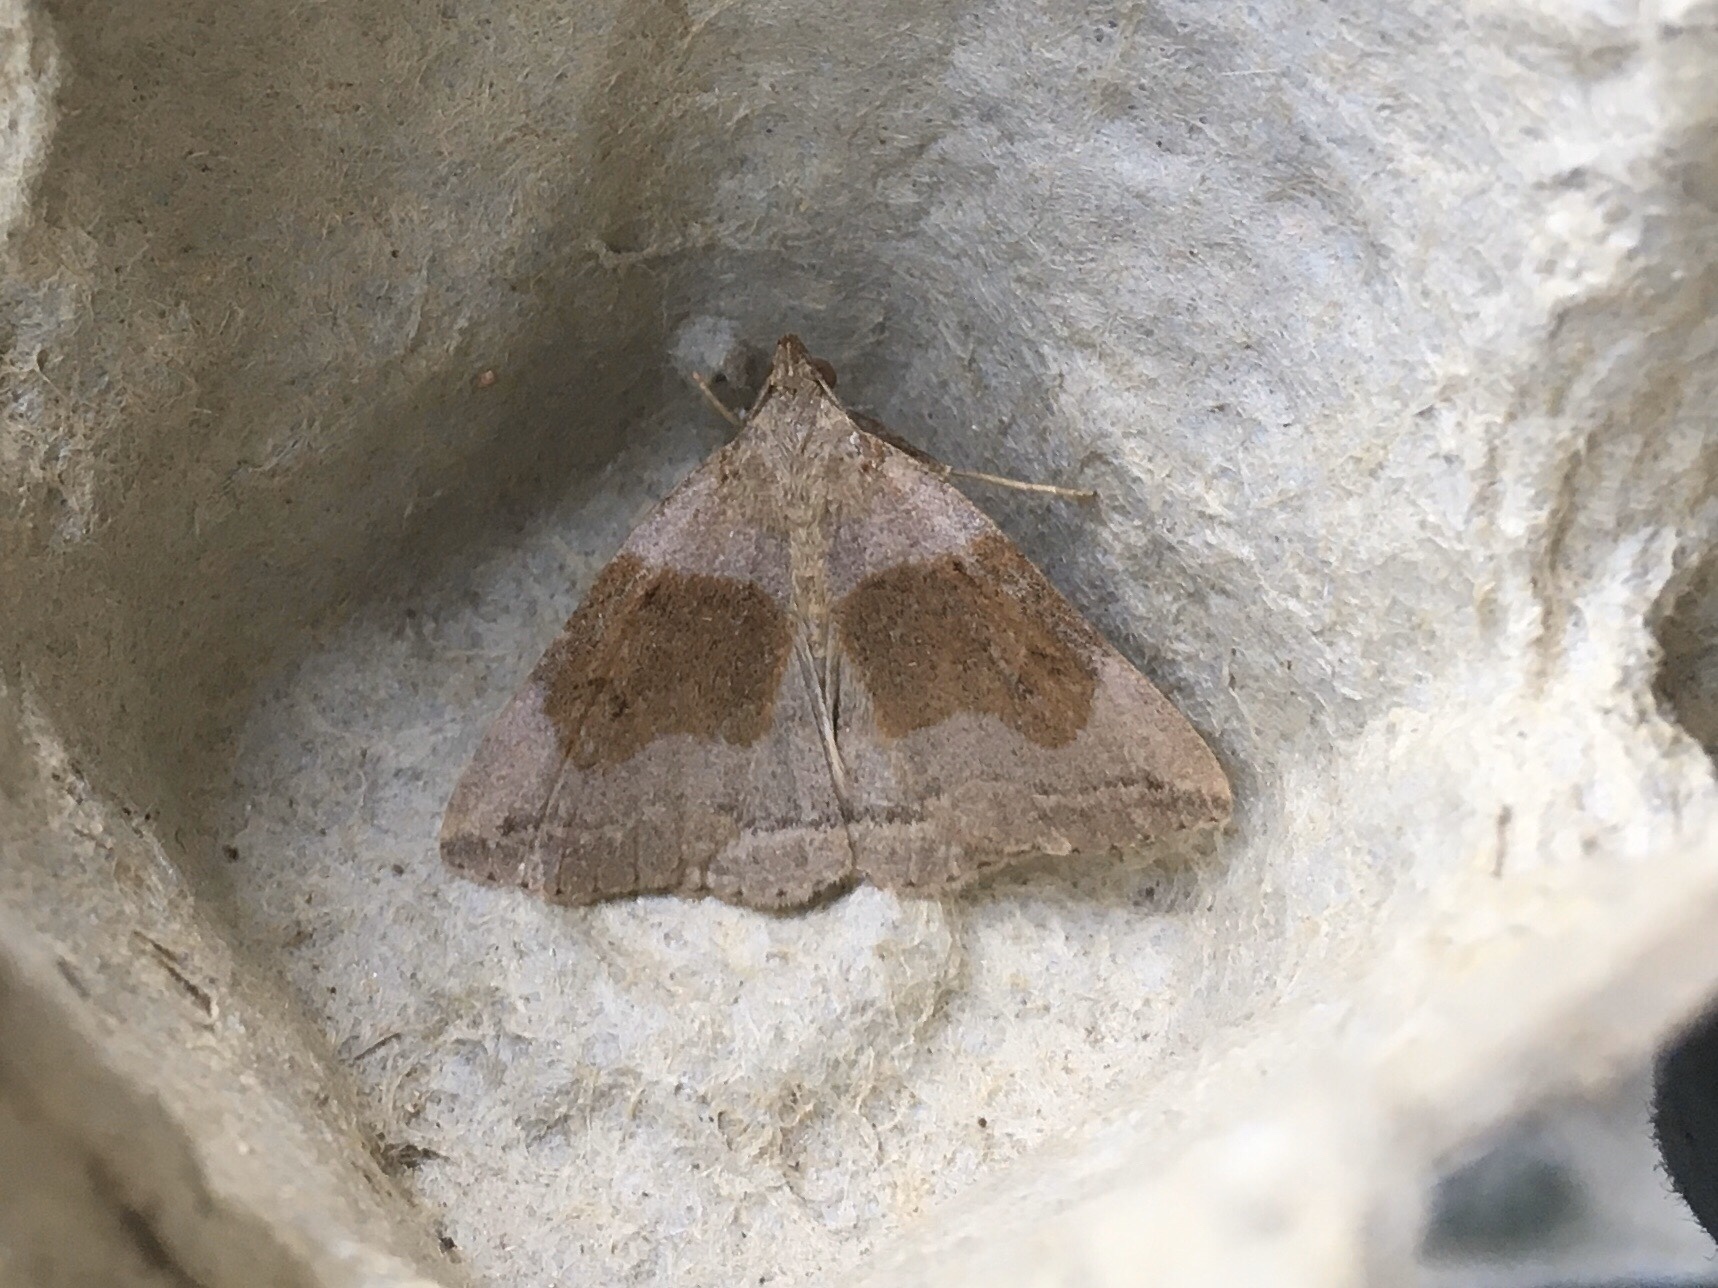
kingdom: Animalia
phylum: Arthropoda
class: Insecta
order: Lepidoptera
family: Erebidae
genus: Zanclognatha
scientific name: Zanclognatha laevigata
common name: Variable fan-foot
